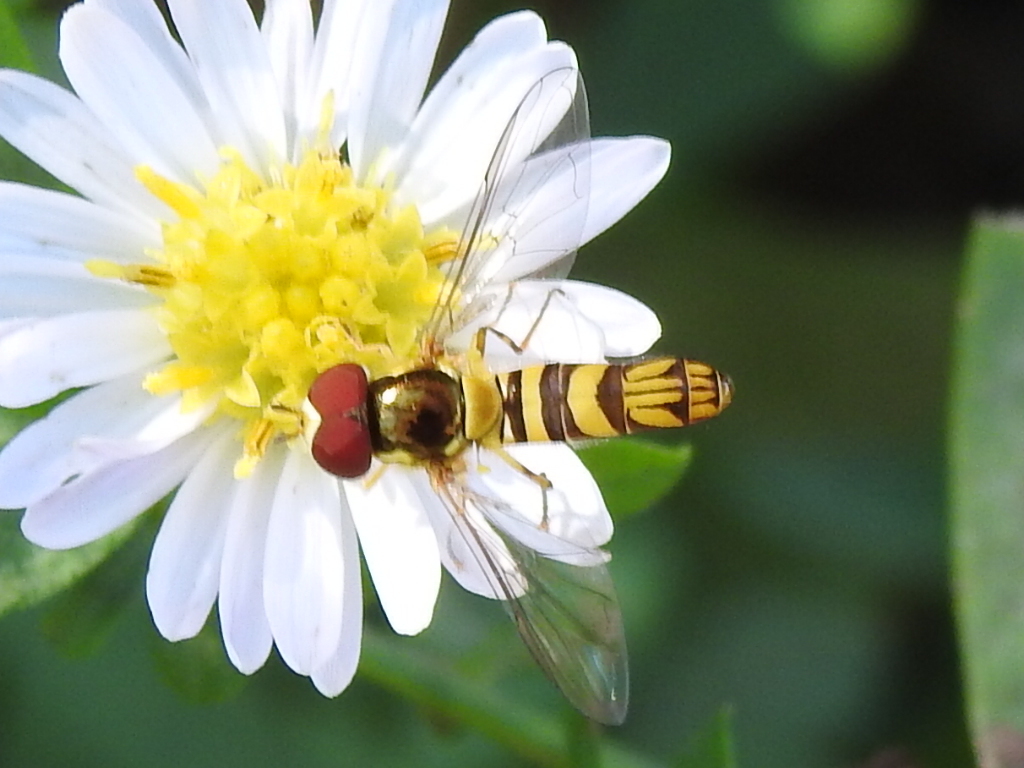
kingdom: Animalia
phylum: Arthropoda
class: Insecta
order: Diptera
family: Syrphidae
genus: Allograpta
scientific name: Allograpta obliqua
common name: Common oblique syrphid
